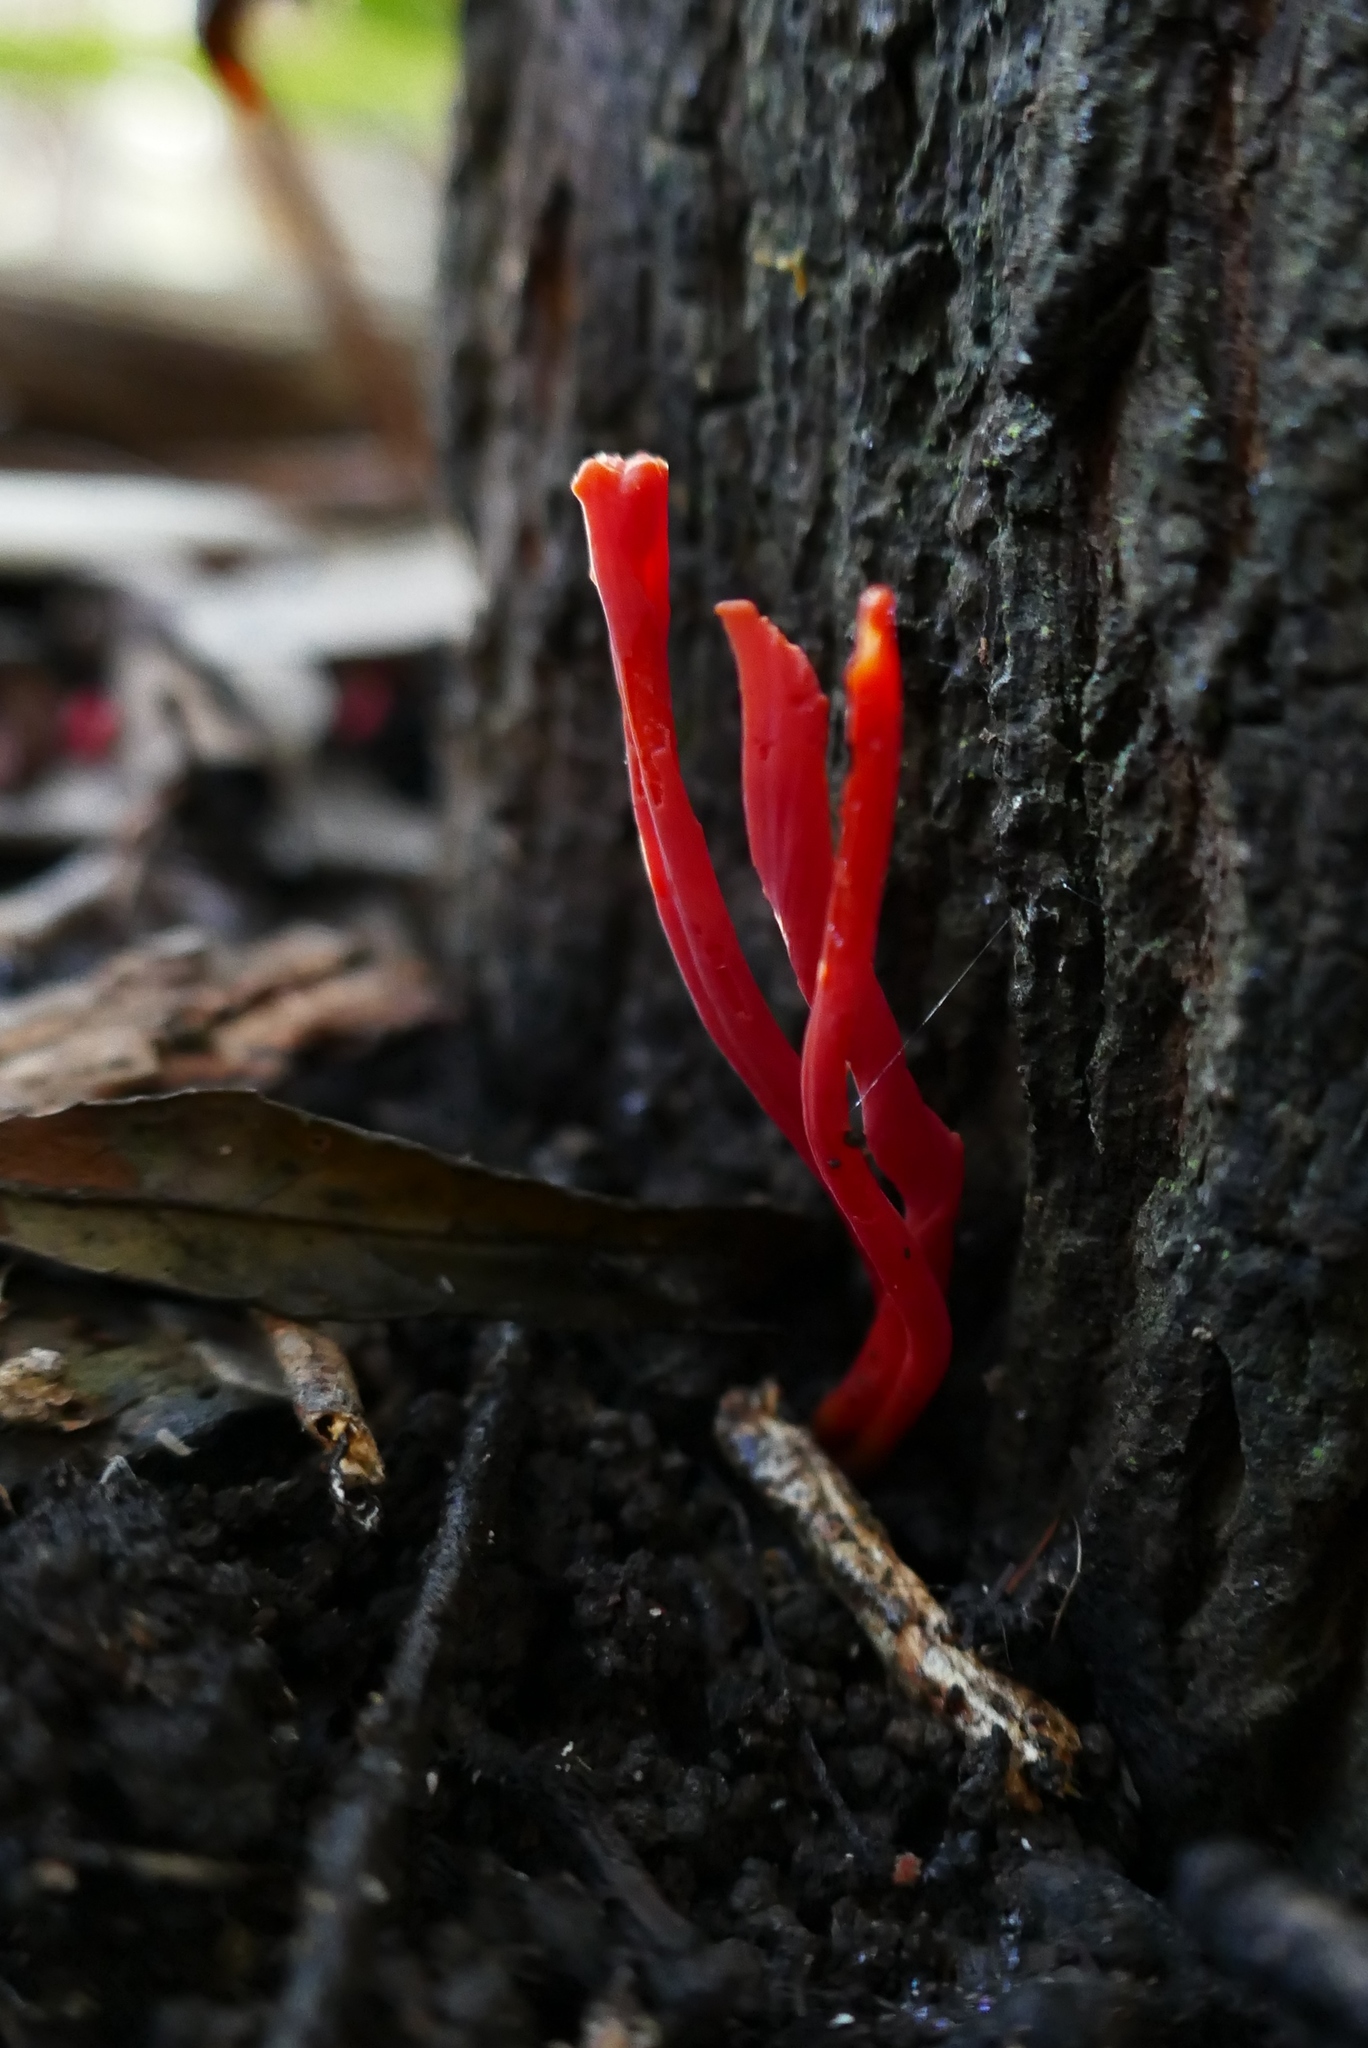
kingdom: Fungi
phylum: Basidiomycota
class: Agaricomycetes
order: Agaricales
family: Clavariaceae
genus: Clavulinopsis
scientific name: Clavulinopsis sulcata
